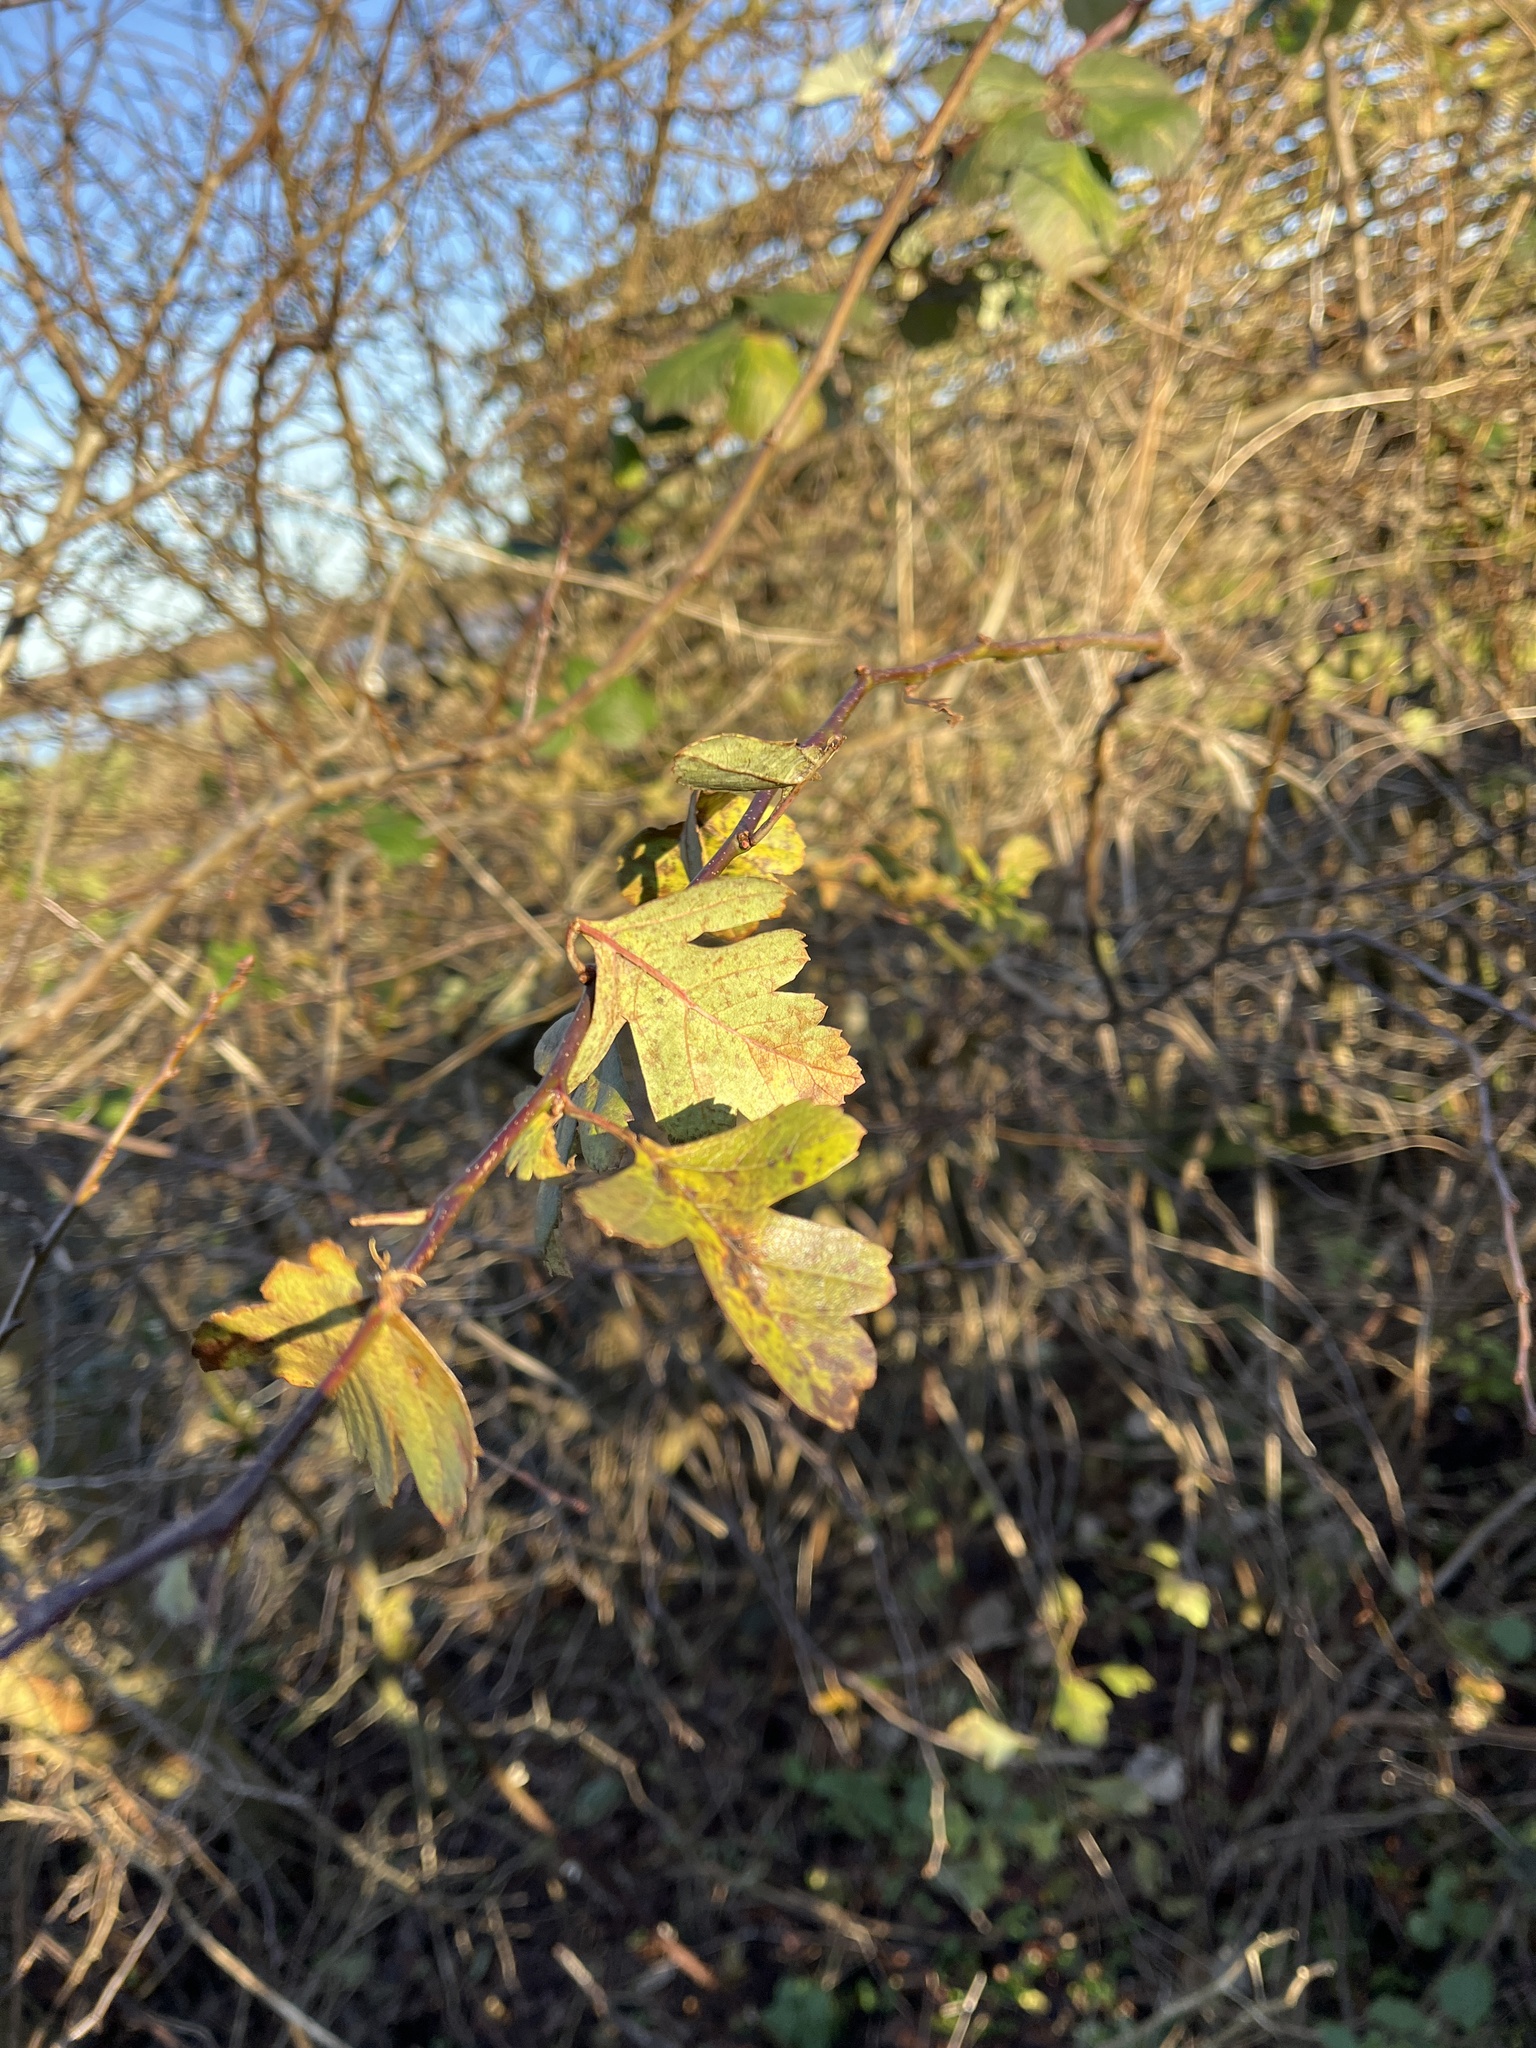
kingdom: Plantae
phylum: Tracheophyta
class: Magnoliopsida
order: Rosales
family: Rosaceae
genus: Crataegus
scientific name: Crataegus monogyna
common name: Hawthorn
